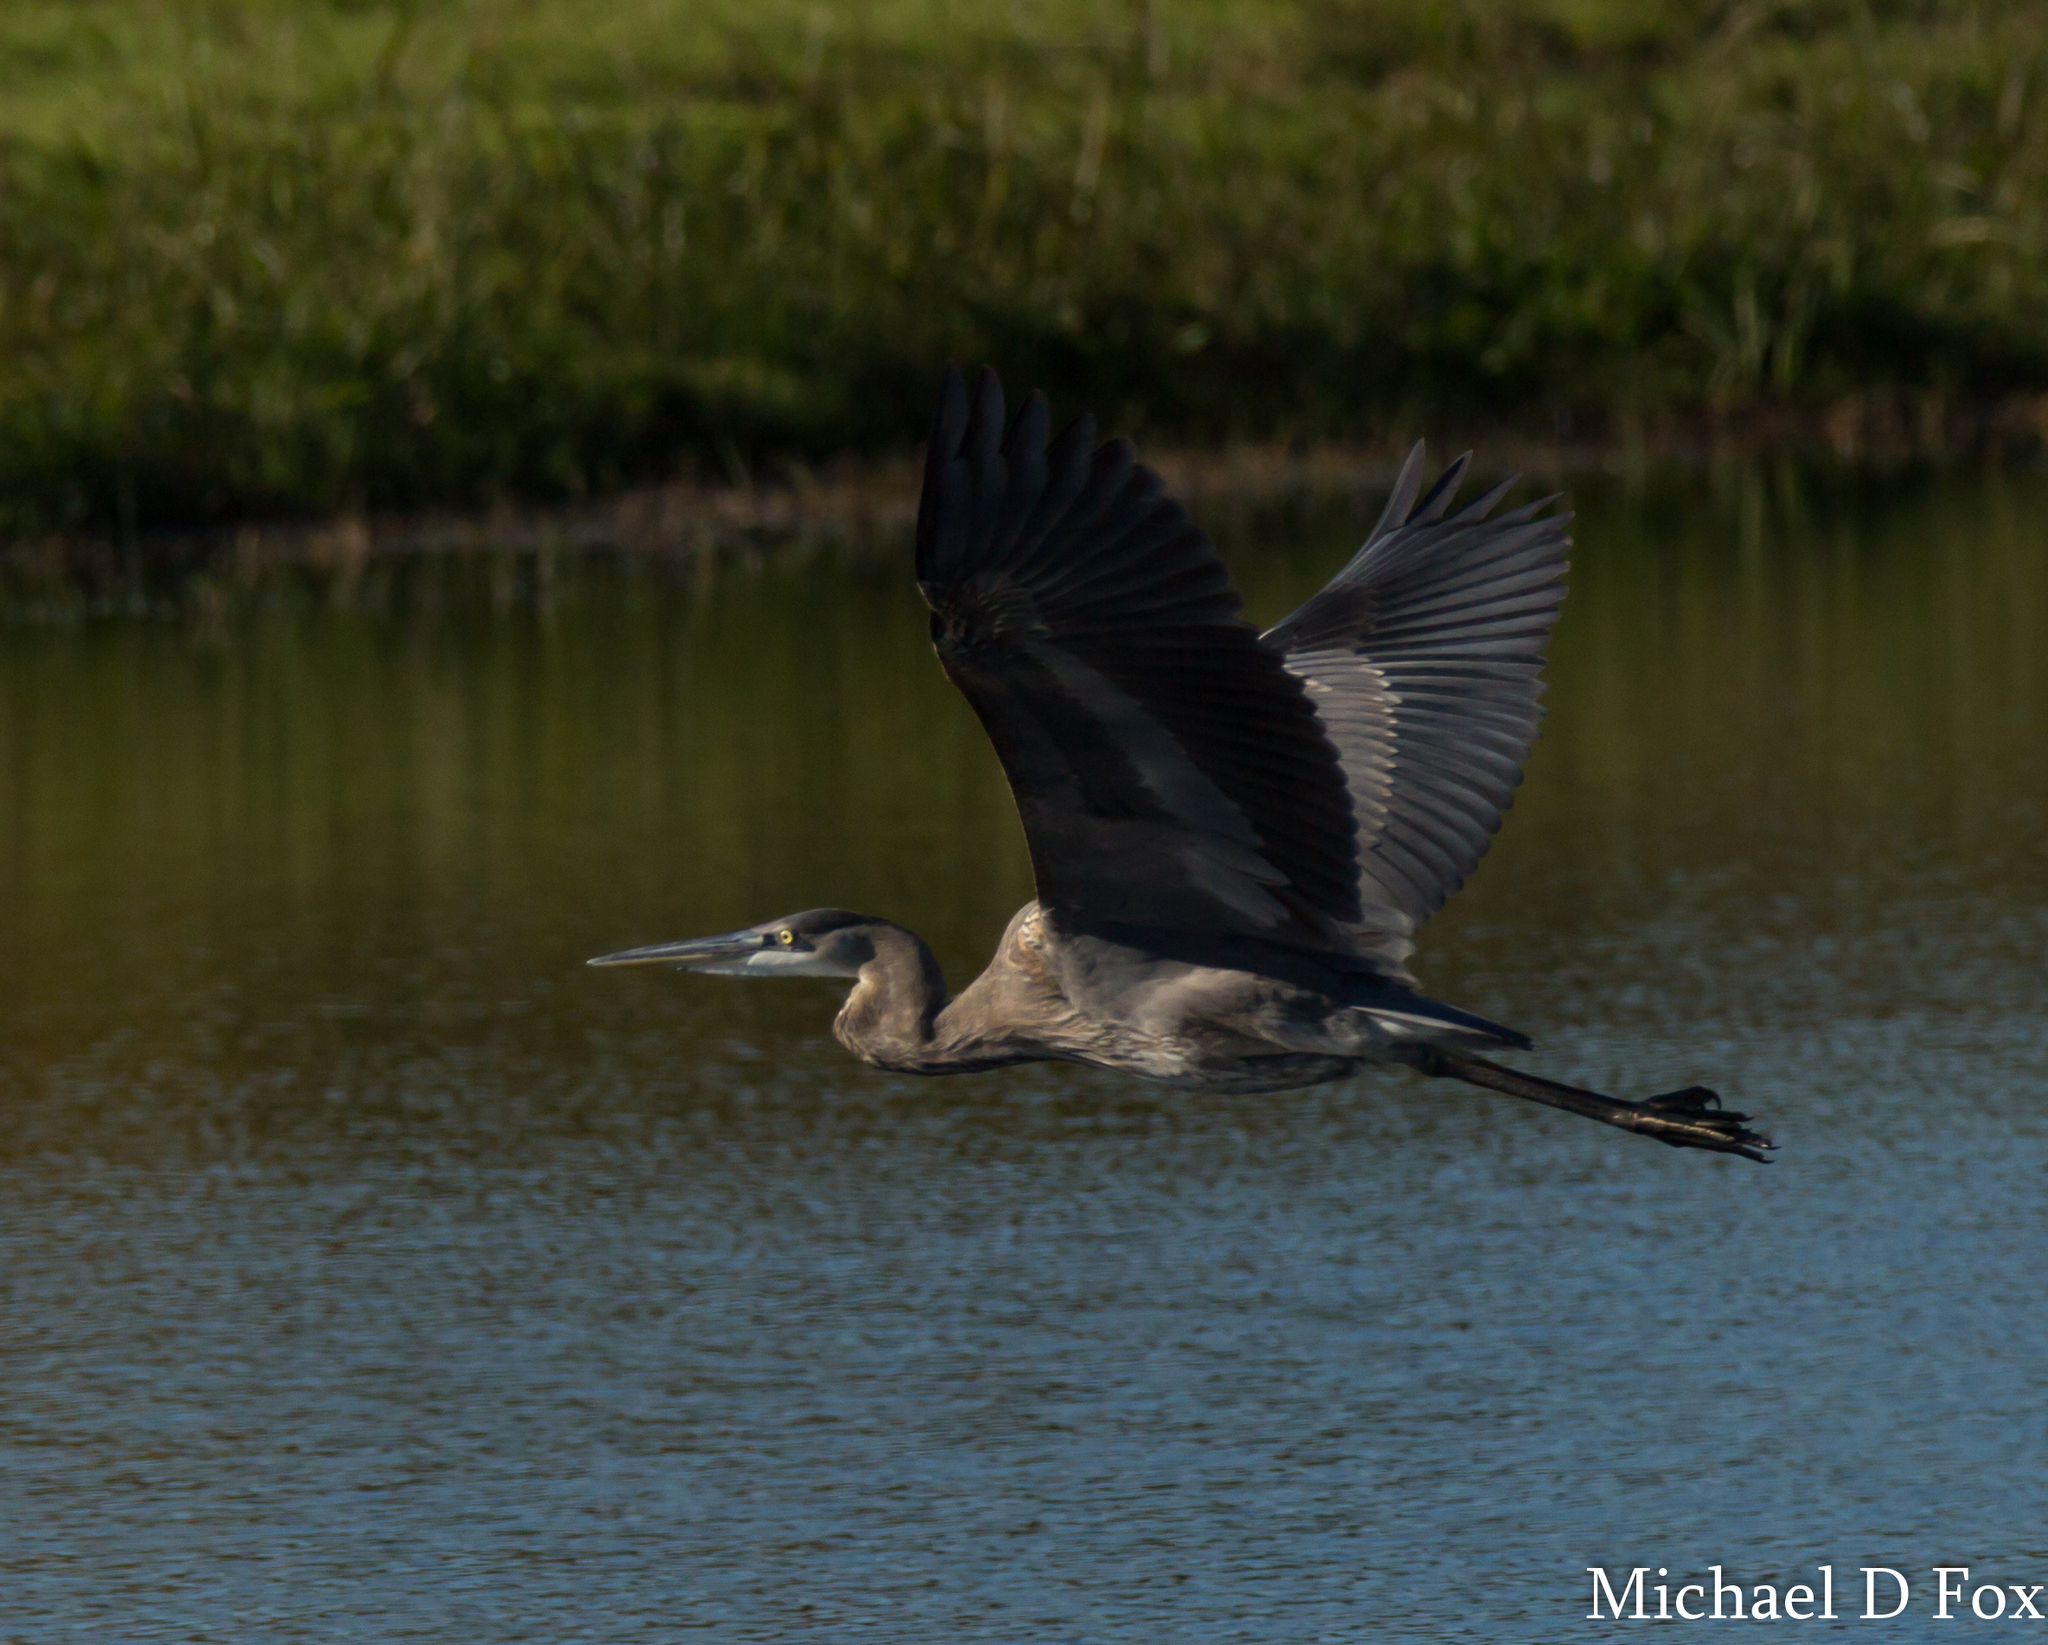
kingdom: Animalia
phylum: Chordata
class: Aves
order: Pelecaniformes
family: Ardeidae
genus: Ardea
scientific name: Ardea herodias
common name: Great blue heron
